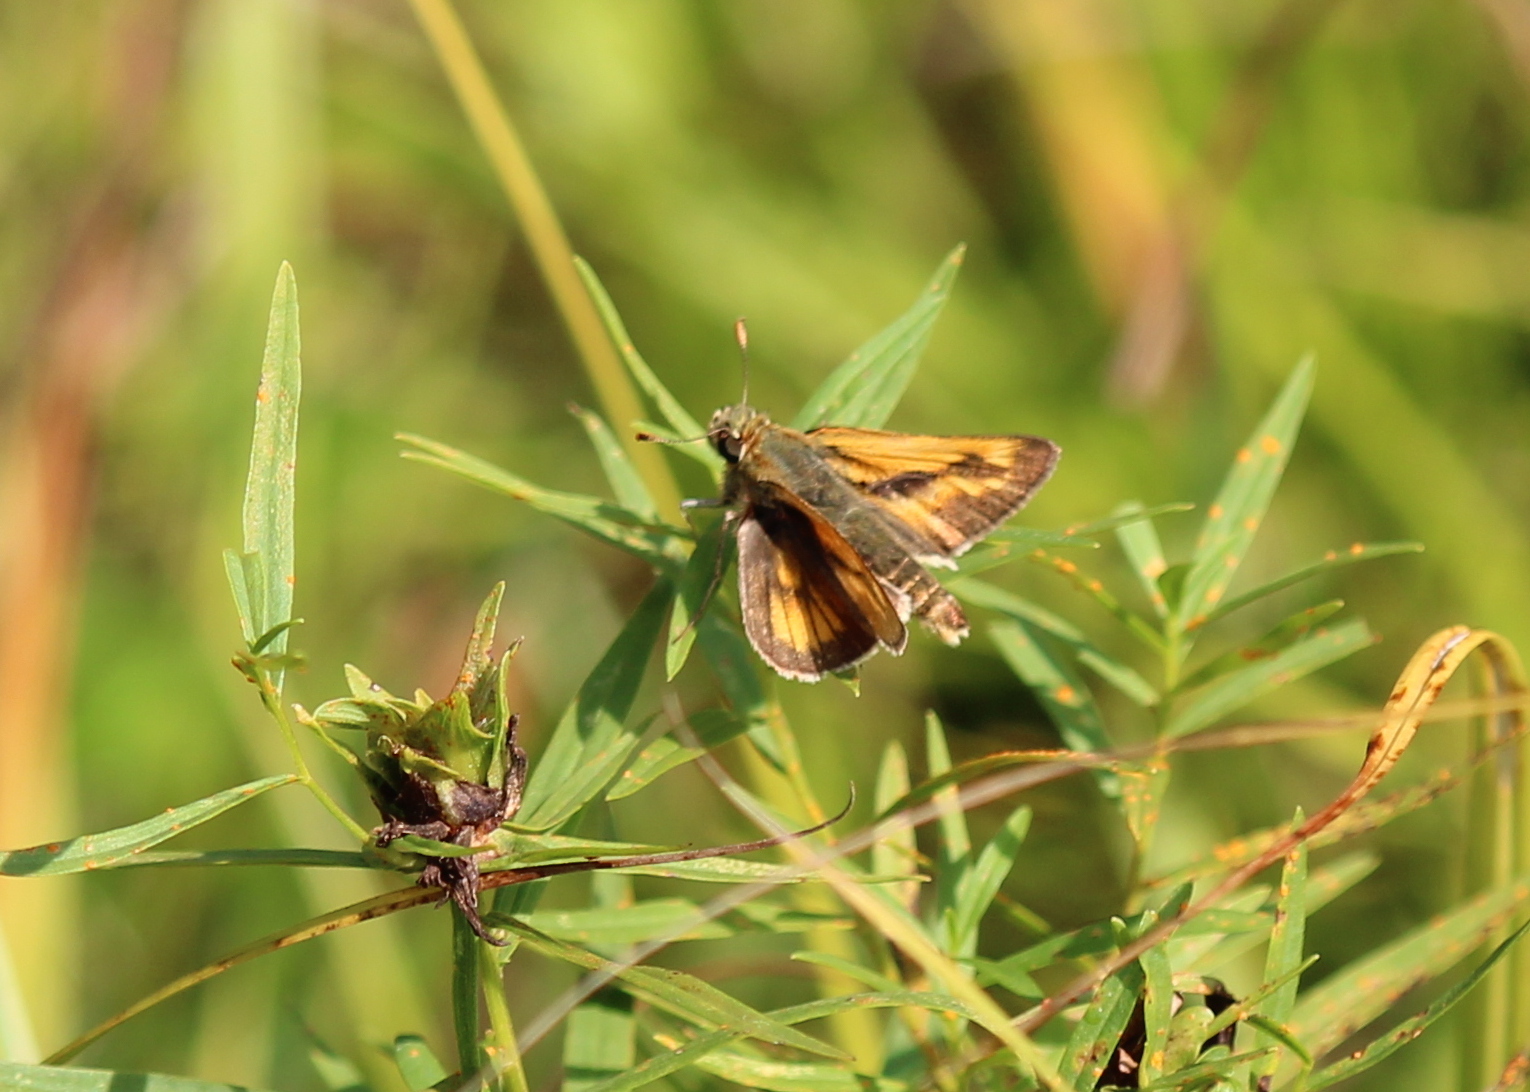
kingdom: Animalia
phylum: Arthropoda
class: Insecta
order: Lepidoptera
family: Hesperiidae
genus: Polites
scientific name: Polites mystic
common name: Long dash
